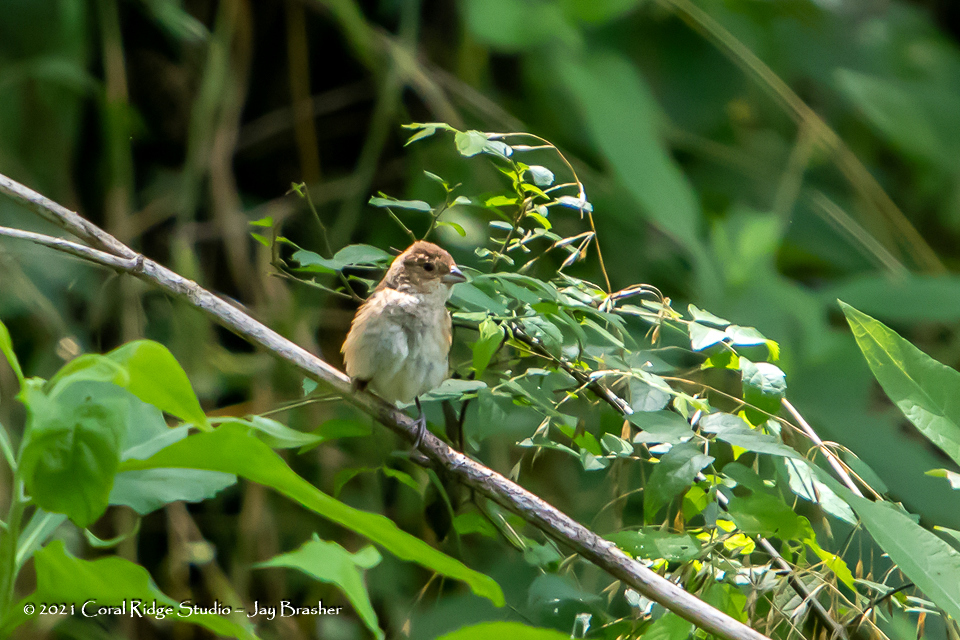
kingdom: Animalia
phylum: Chordata
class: Aves
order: Passeriformes
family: Cardinalidae
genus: Passerina
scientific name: Passerina cyanea
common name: Indigo bunting
